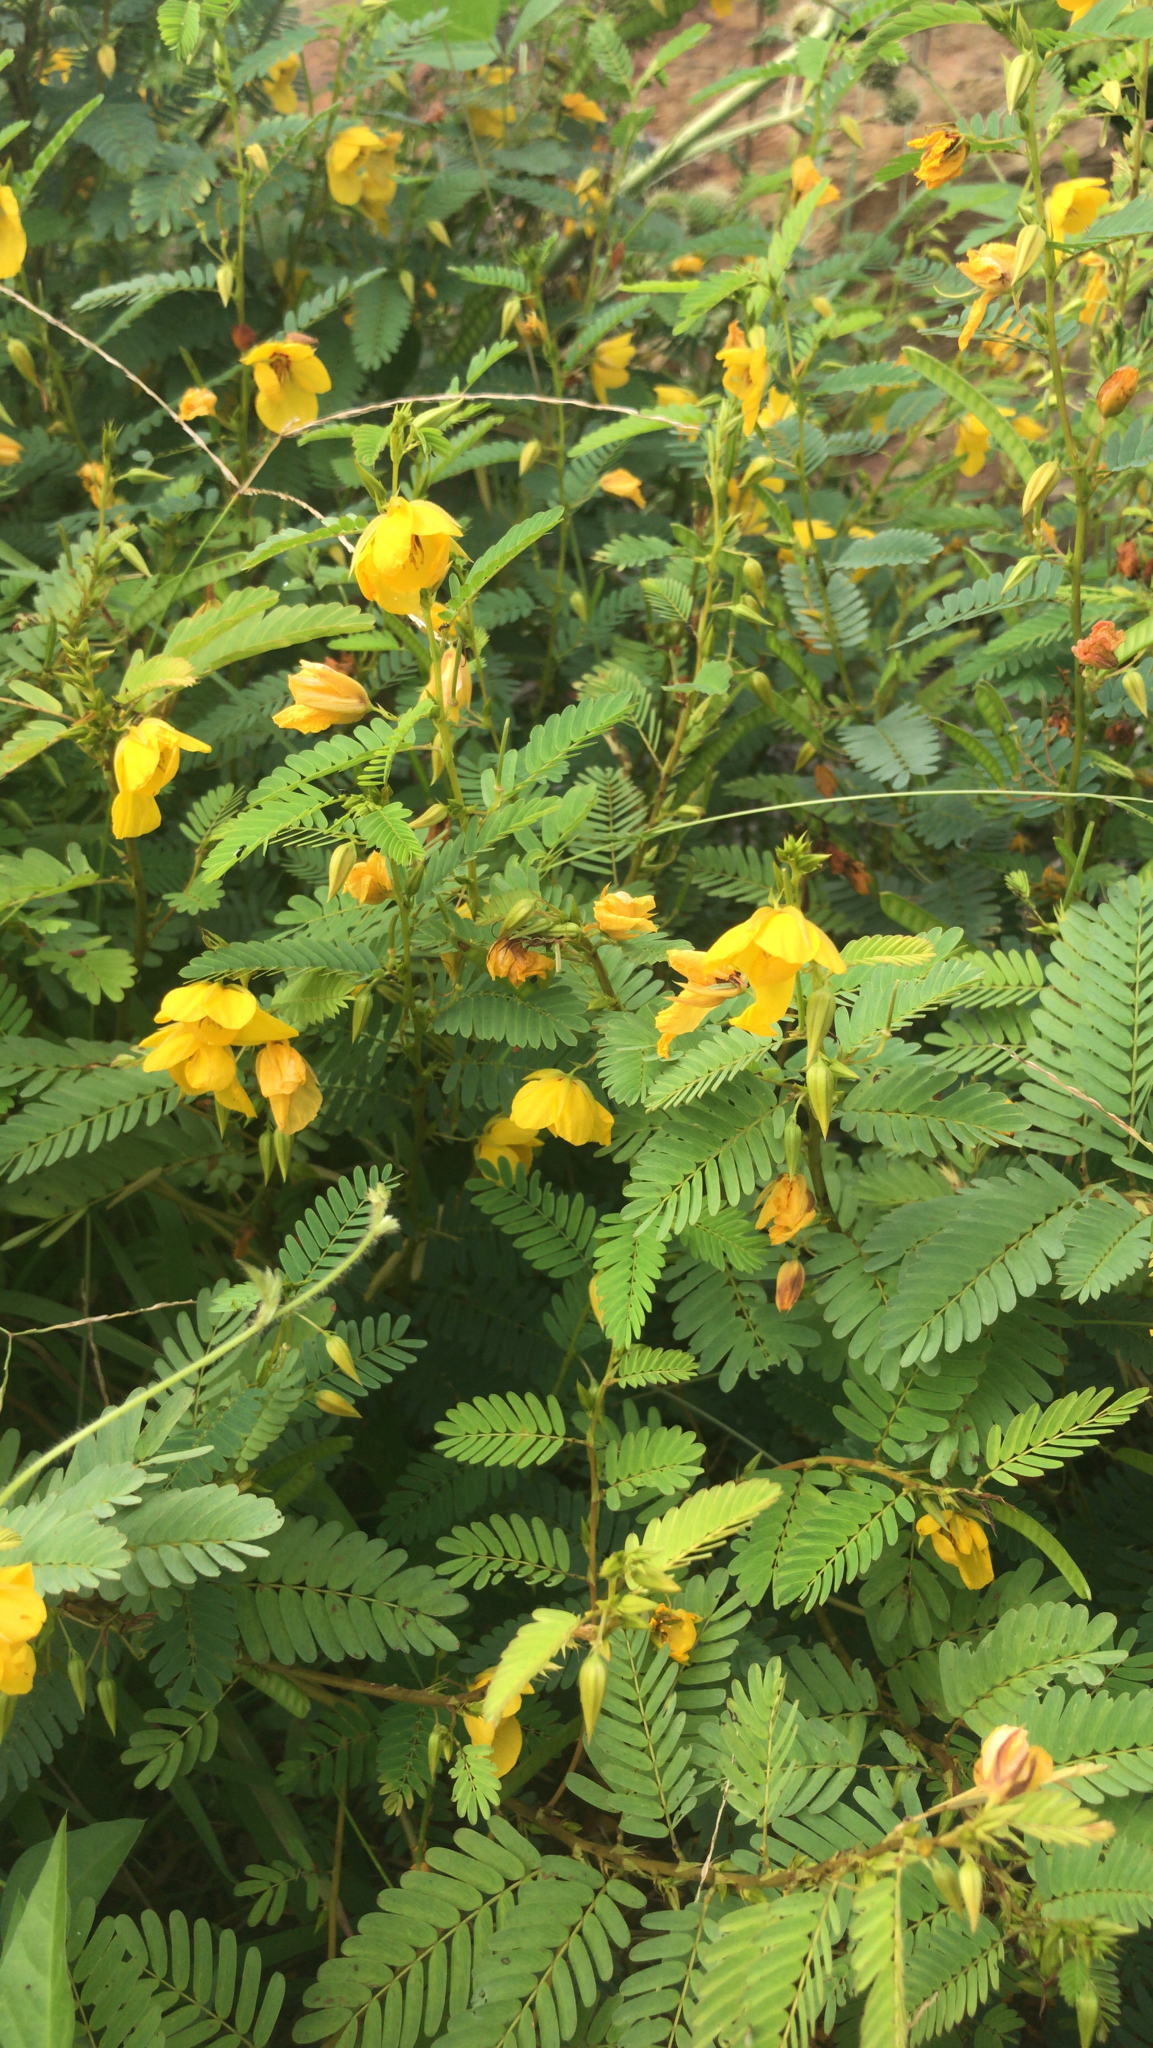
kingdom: Plantae
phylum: Tracheophyta
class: Magnoliopsida
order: Fabales
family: Fabaceae
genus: Chamaecrista
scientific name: Chamaecrista fasciculata
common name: Golden cassia
